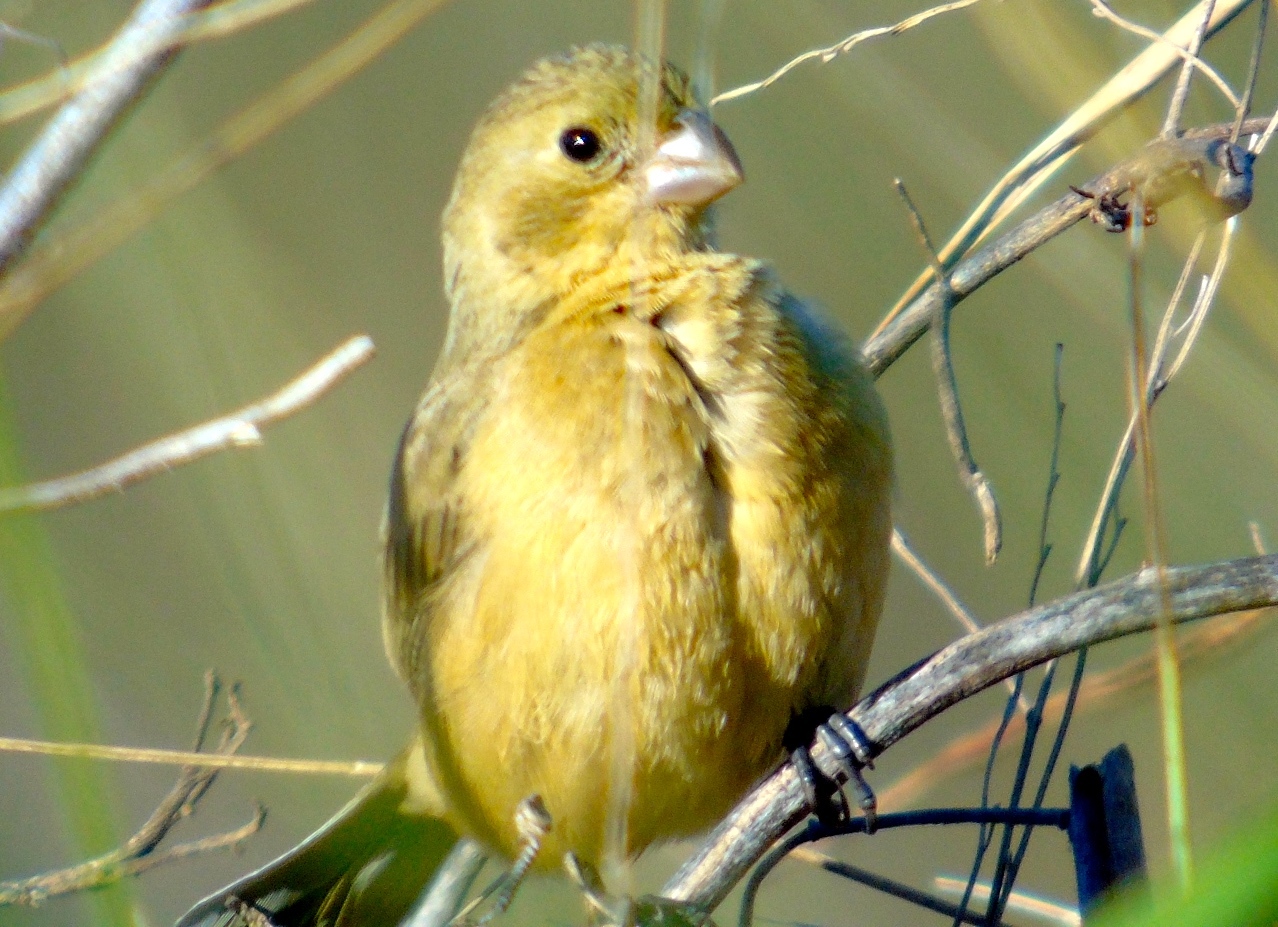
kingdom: Animalia
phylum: Chordata
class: Aves
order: Passeriformes
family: Thraupidae
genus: Sporophila
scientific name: Sporophila torqueola
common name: White-collared seedeater
